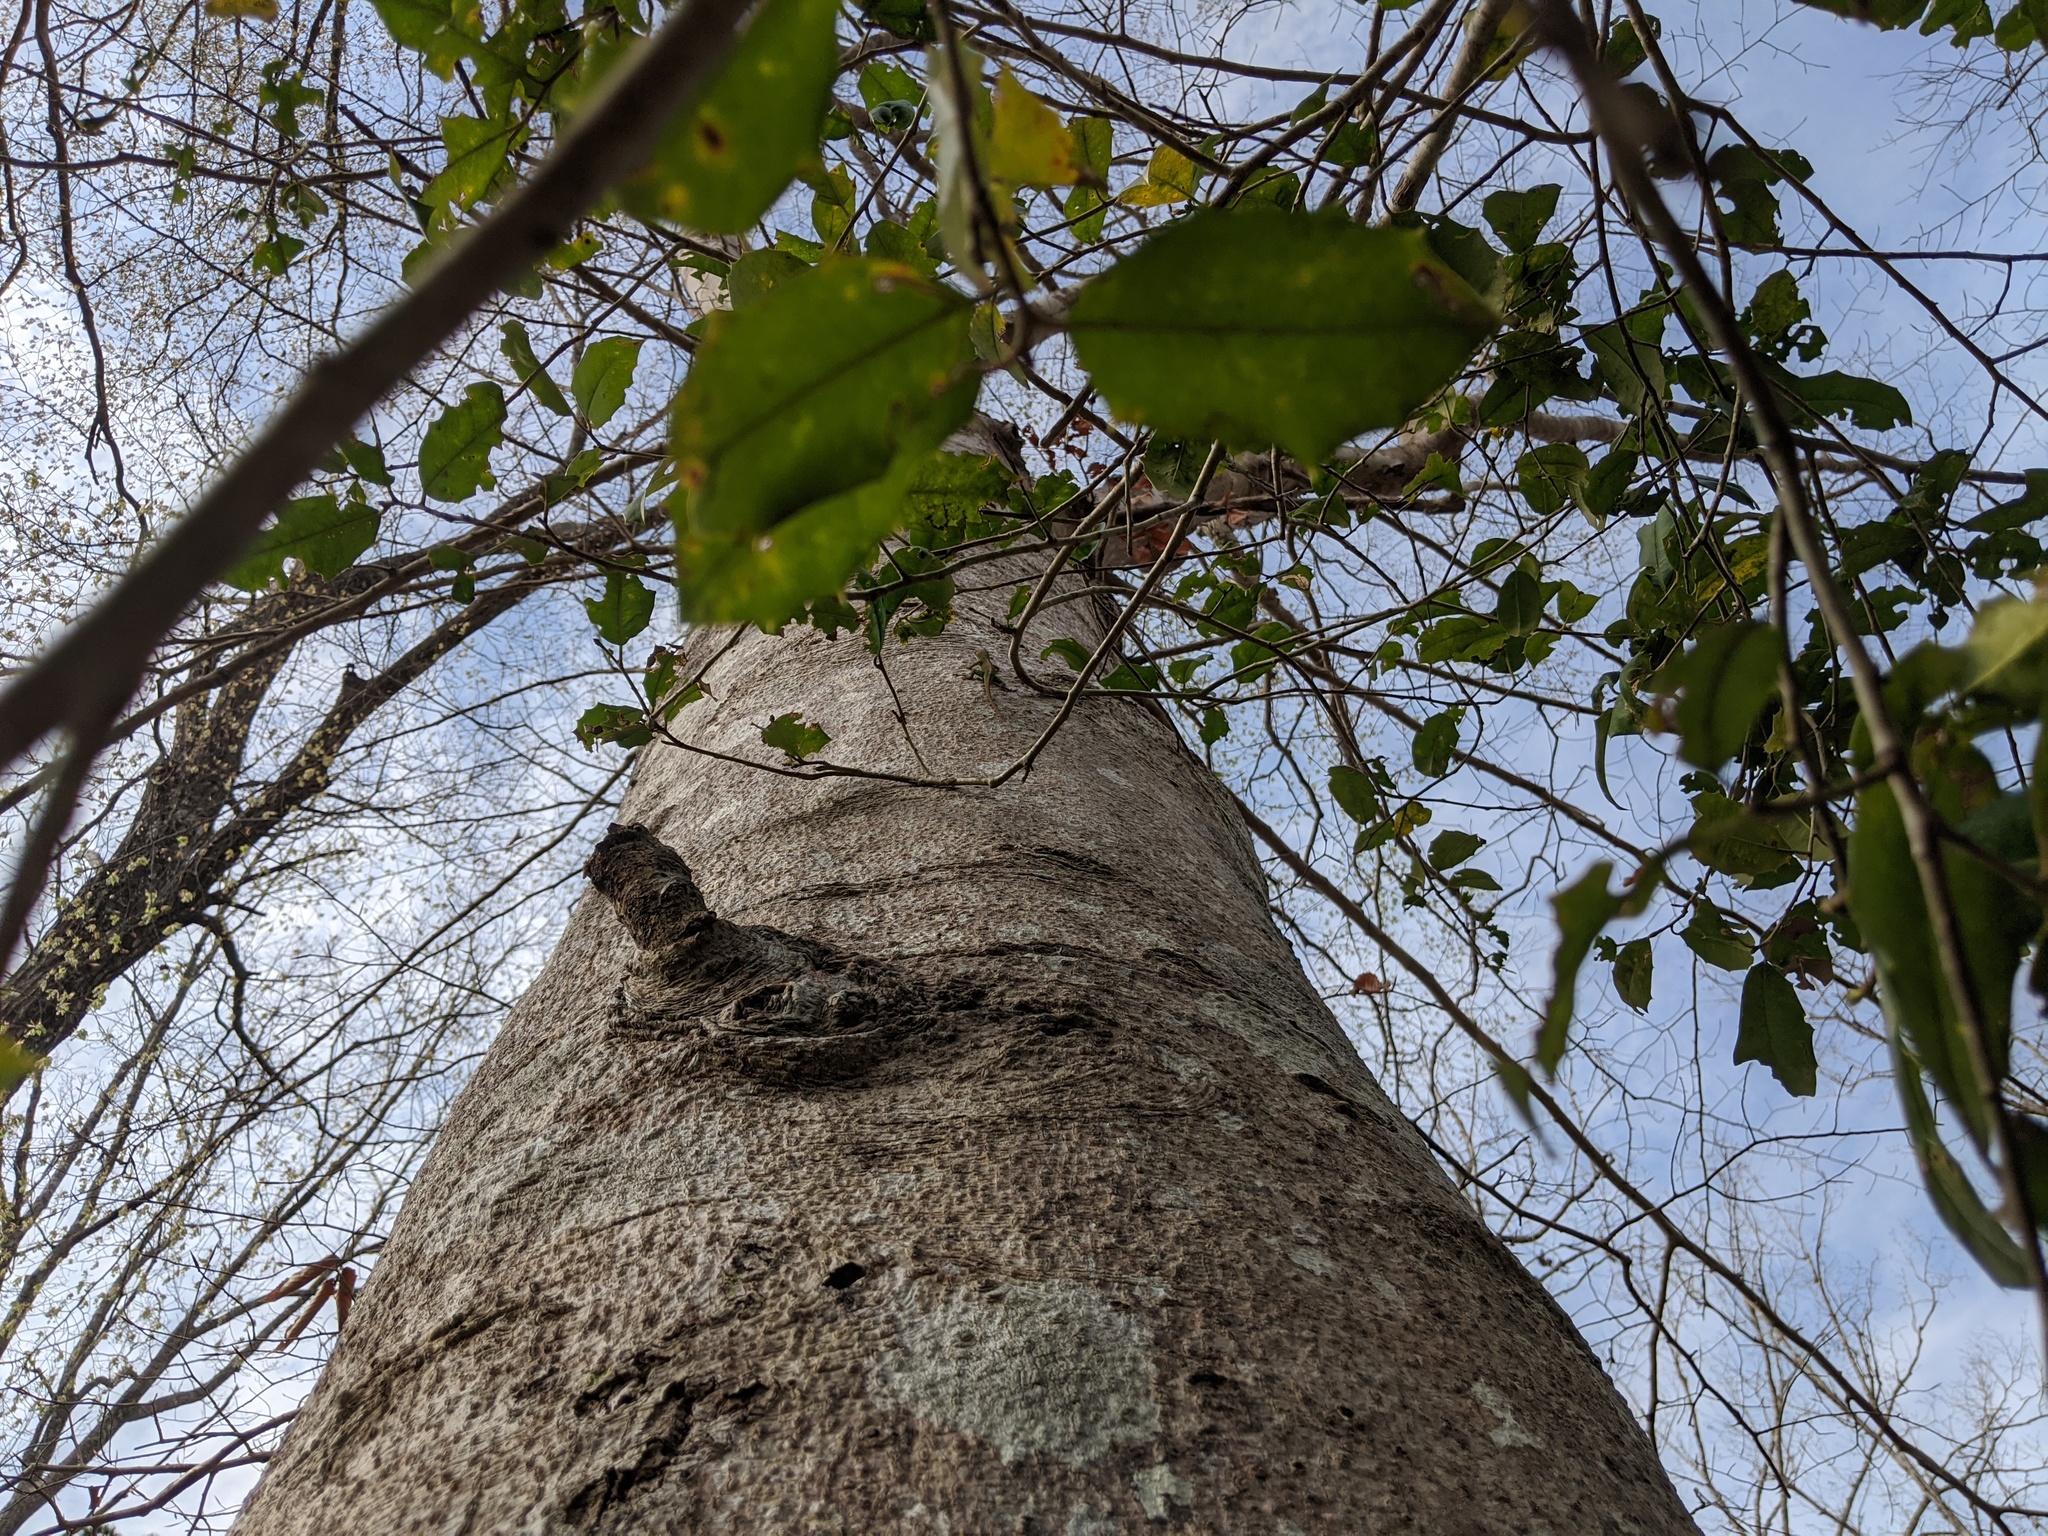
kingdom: Animalia
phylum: Chordata
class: Squamata
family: Dactyloidae
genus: Anolis
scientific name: Anolis carolinensis
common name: Green anole
